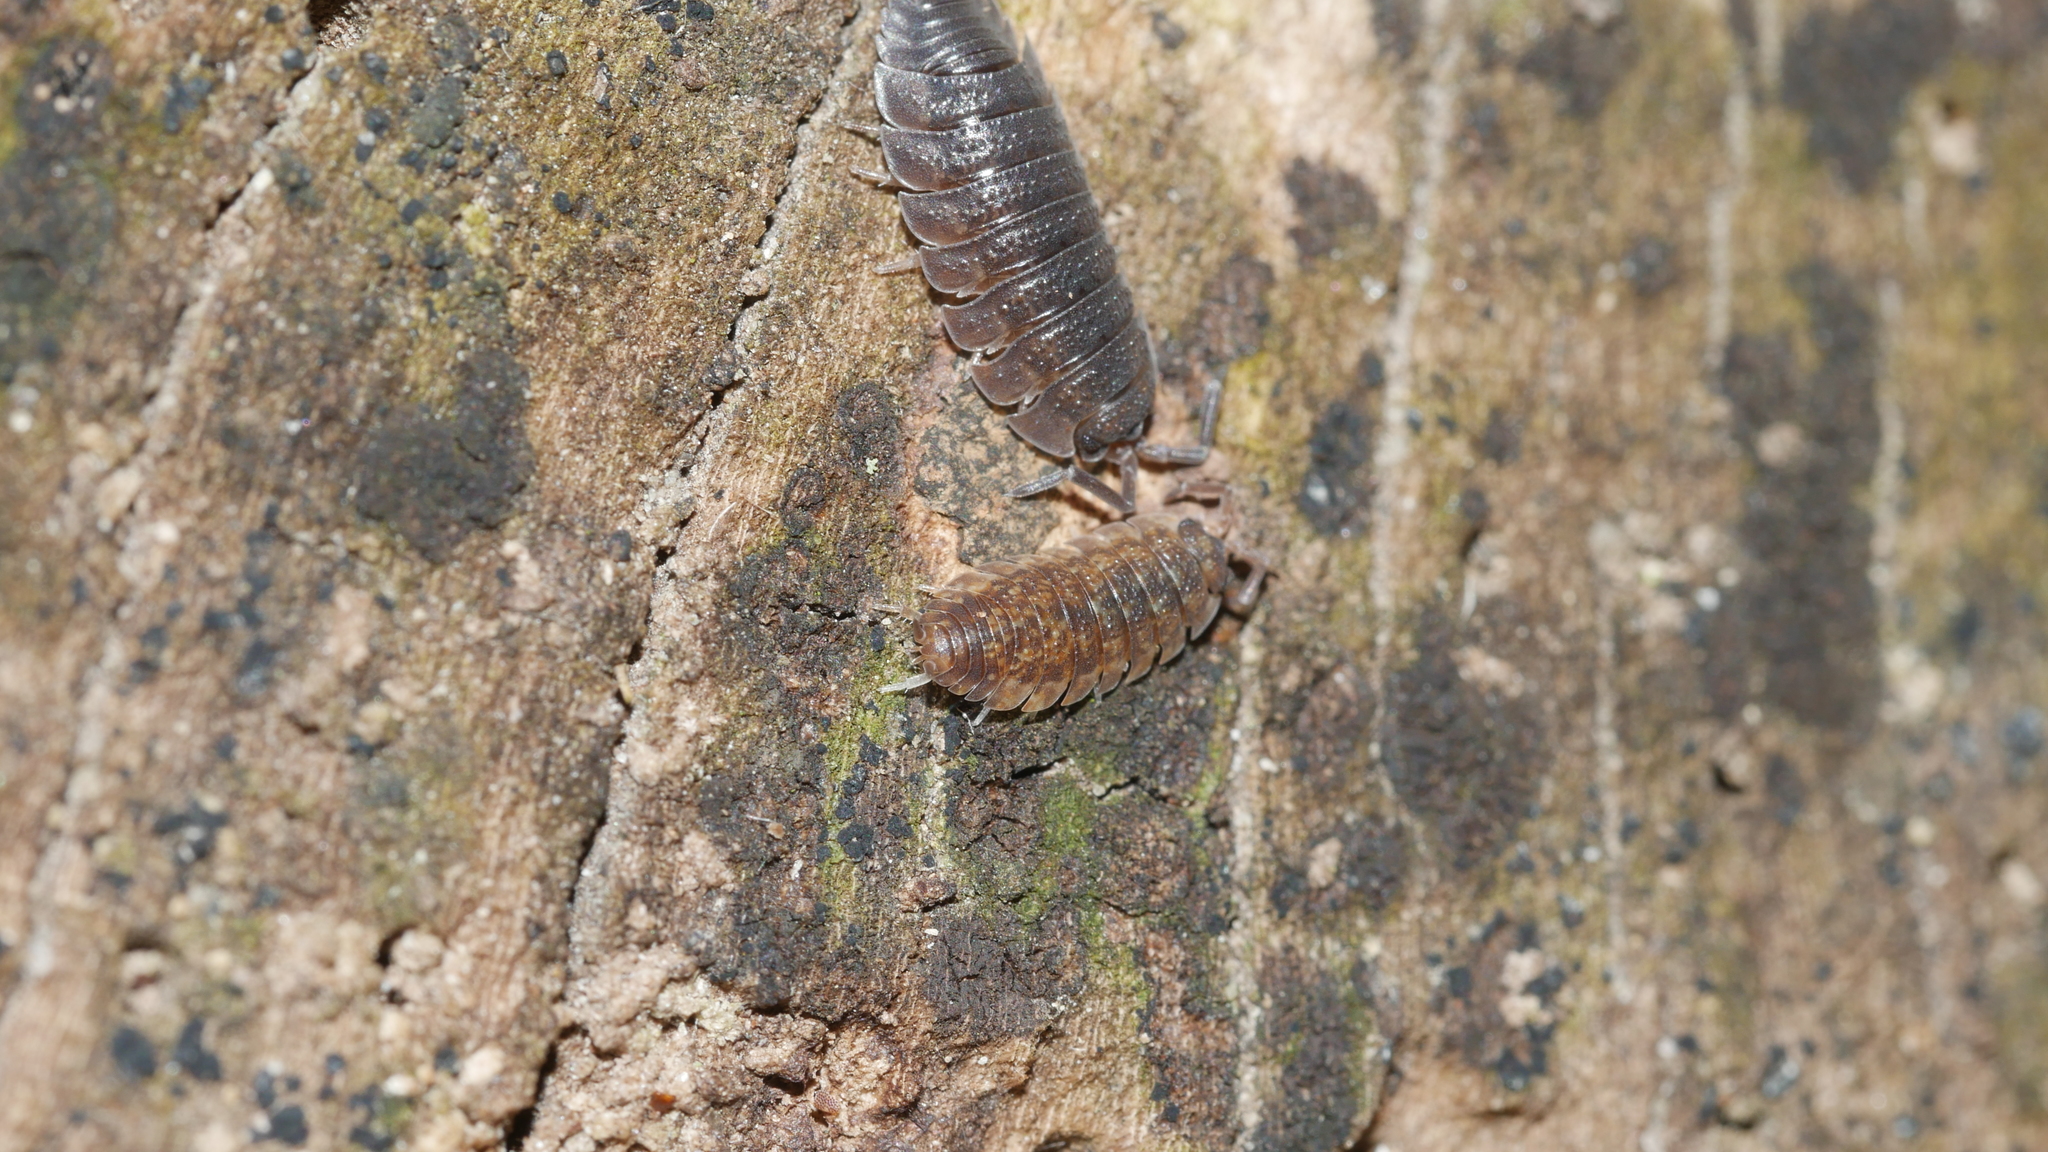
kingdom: Animalia
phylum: Arthropoda
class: Malacostraca
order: Isopoda
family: Porcellionidae
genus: Porcellio
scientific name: Porcellio scaber
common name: Common rough woodlouse
